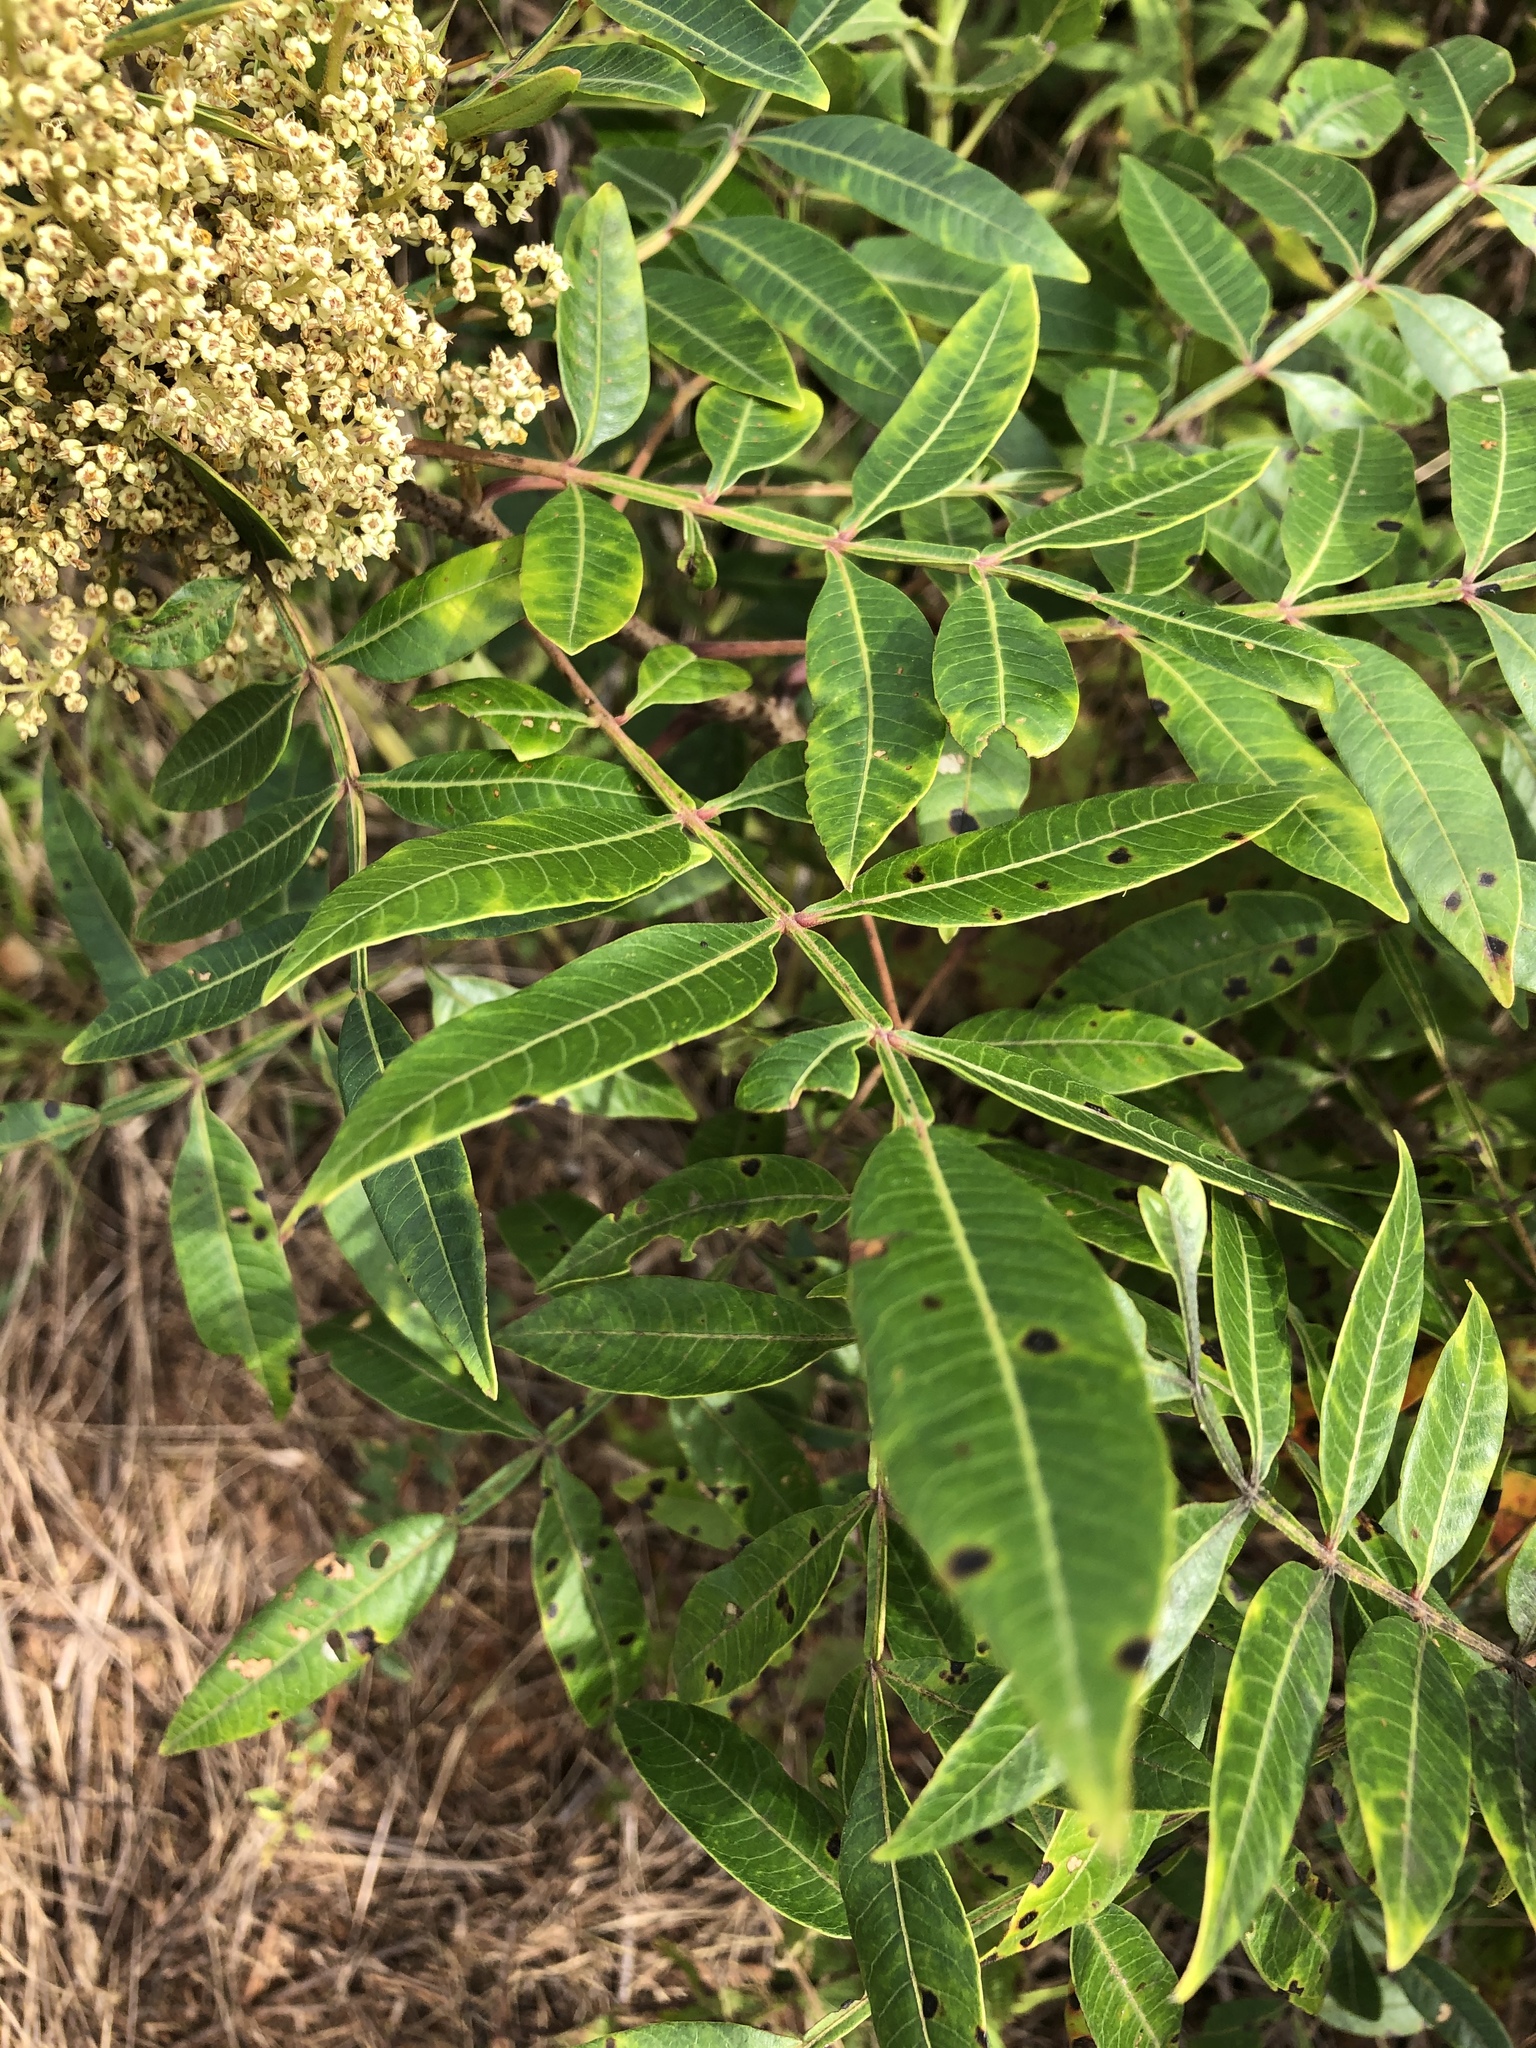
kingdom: Plantae
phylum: Tracheophyta
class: Magnoliopsida
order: Sapindales
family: Anacardiaceae
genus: Rhus
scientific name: Rhus copallina
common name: Shining sumac
